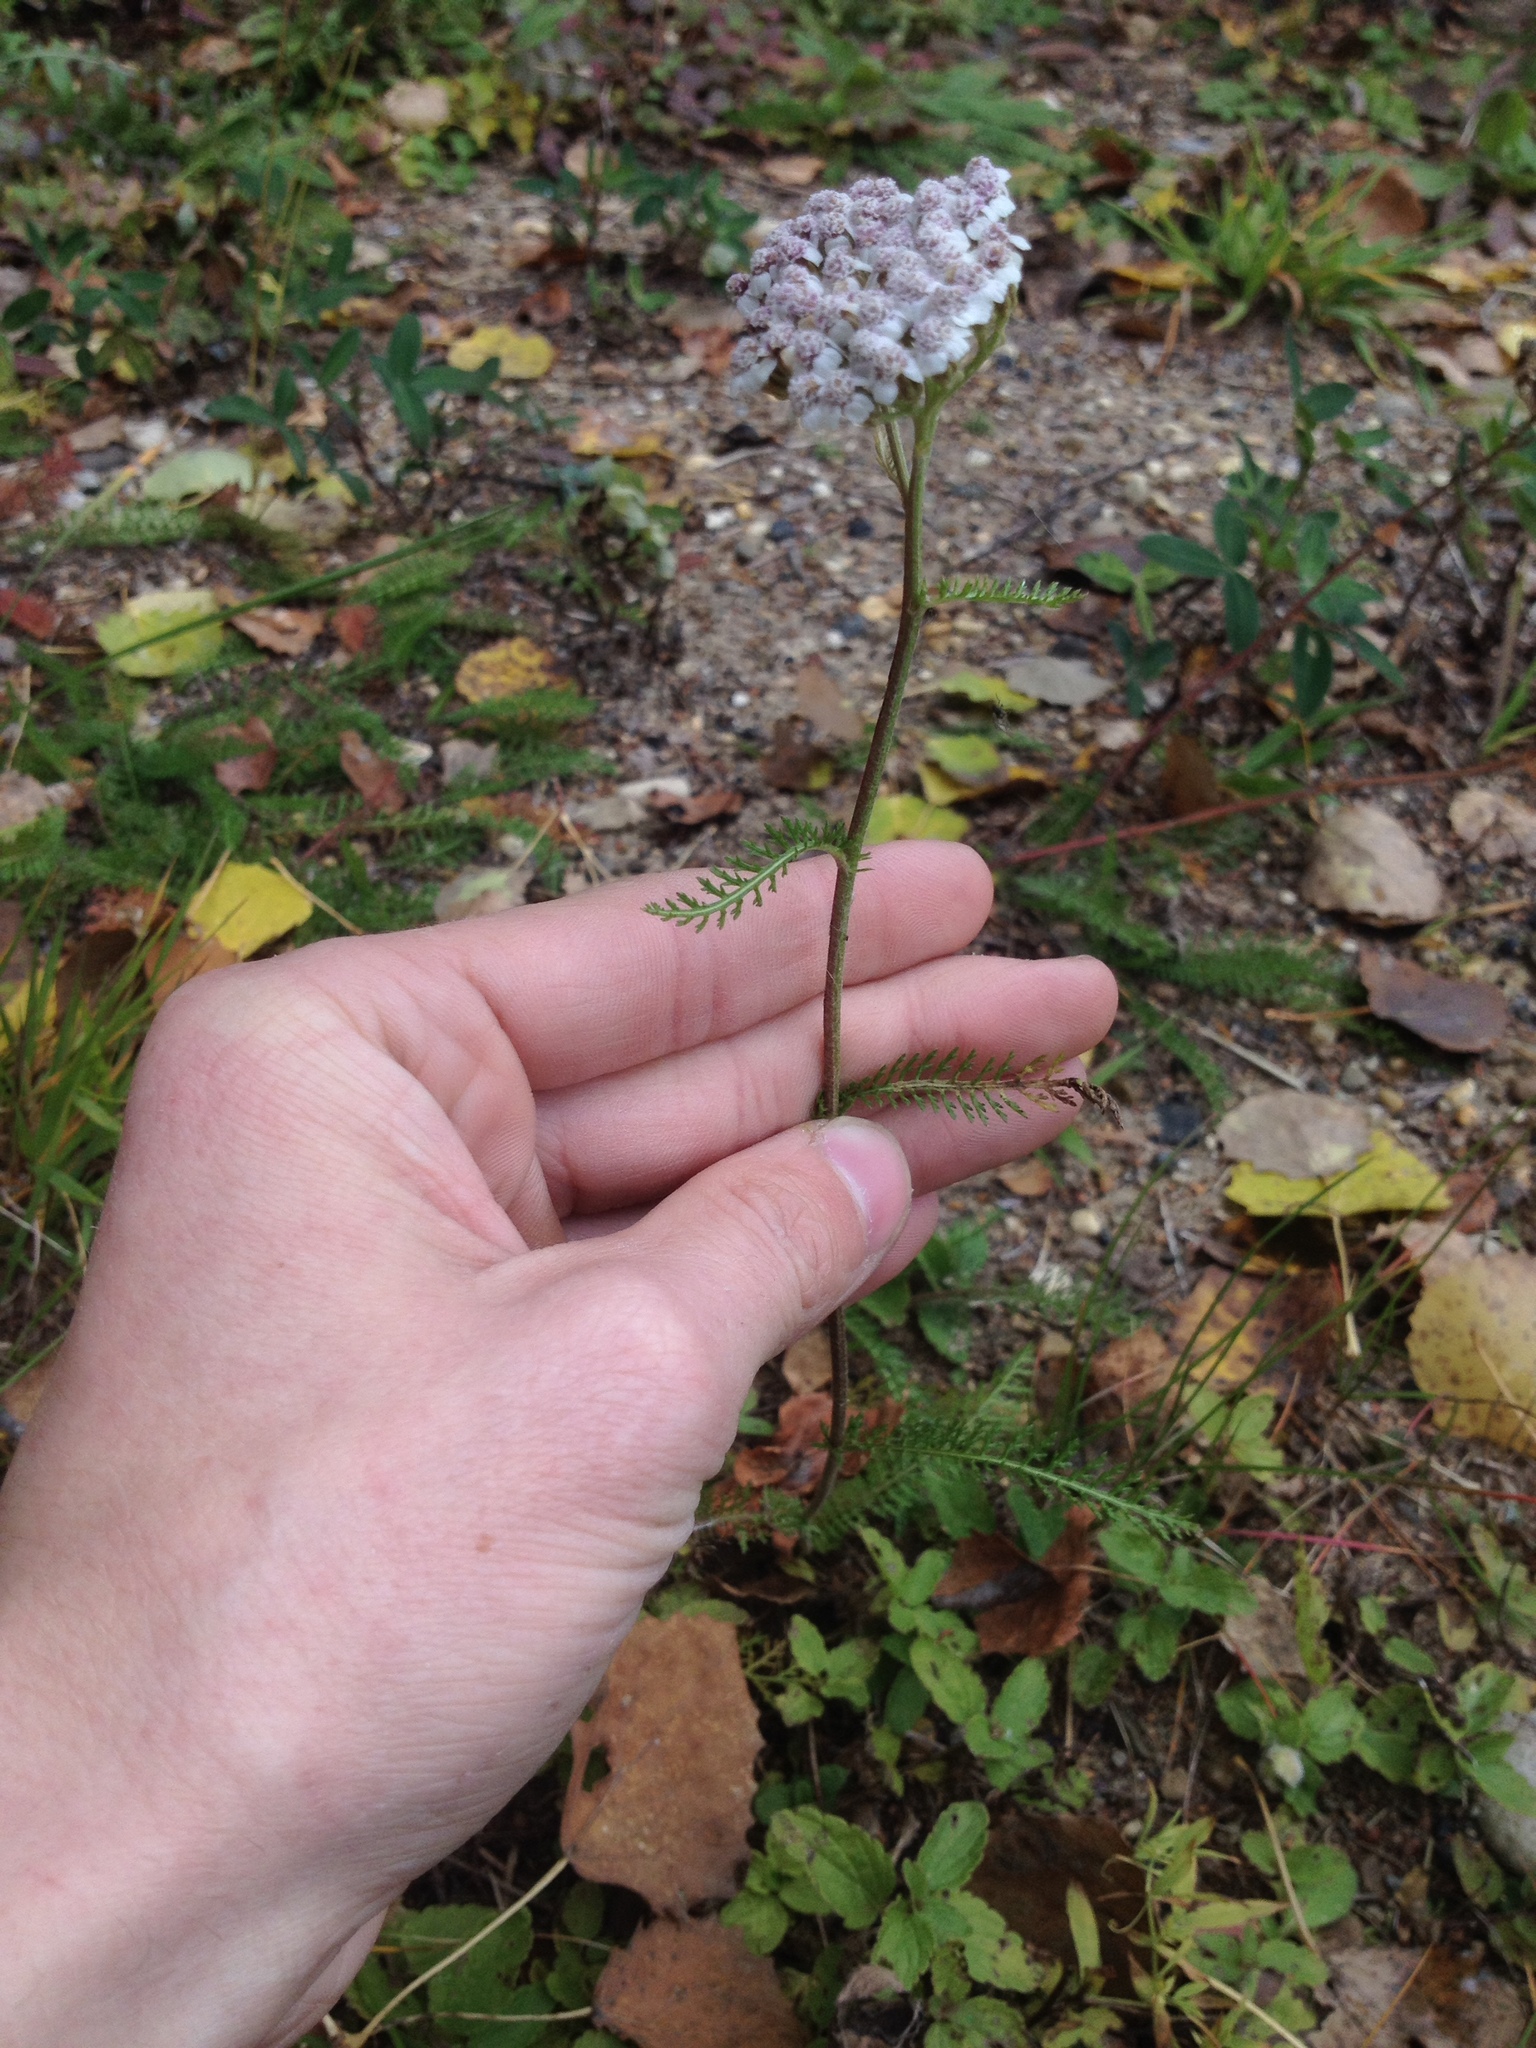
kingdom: Plantae
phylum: Tracheophyta
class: Magnoliopsida
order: Asterales
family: Asteraceae
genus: Achillea
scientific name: Achillea millefolium
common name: Yarrow
